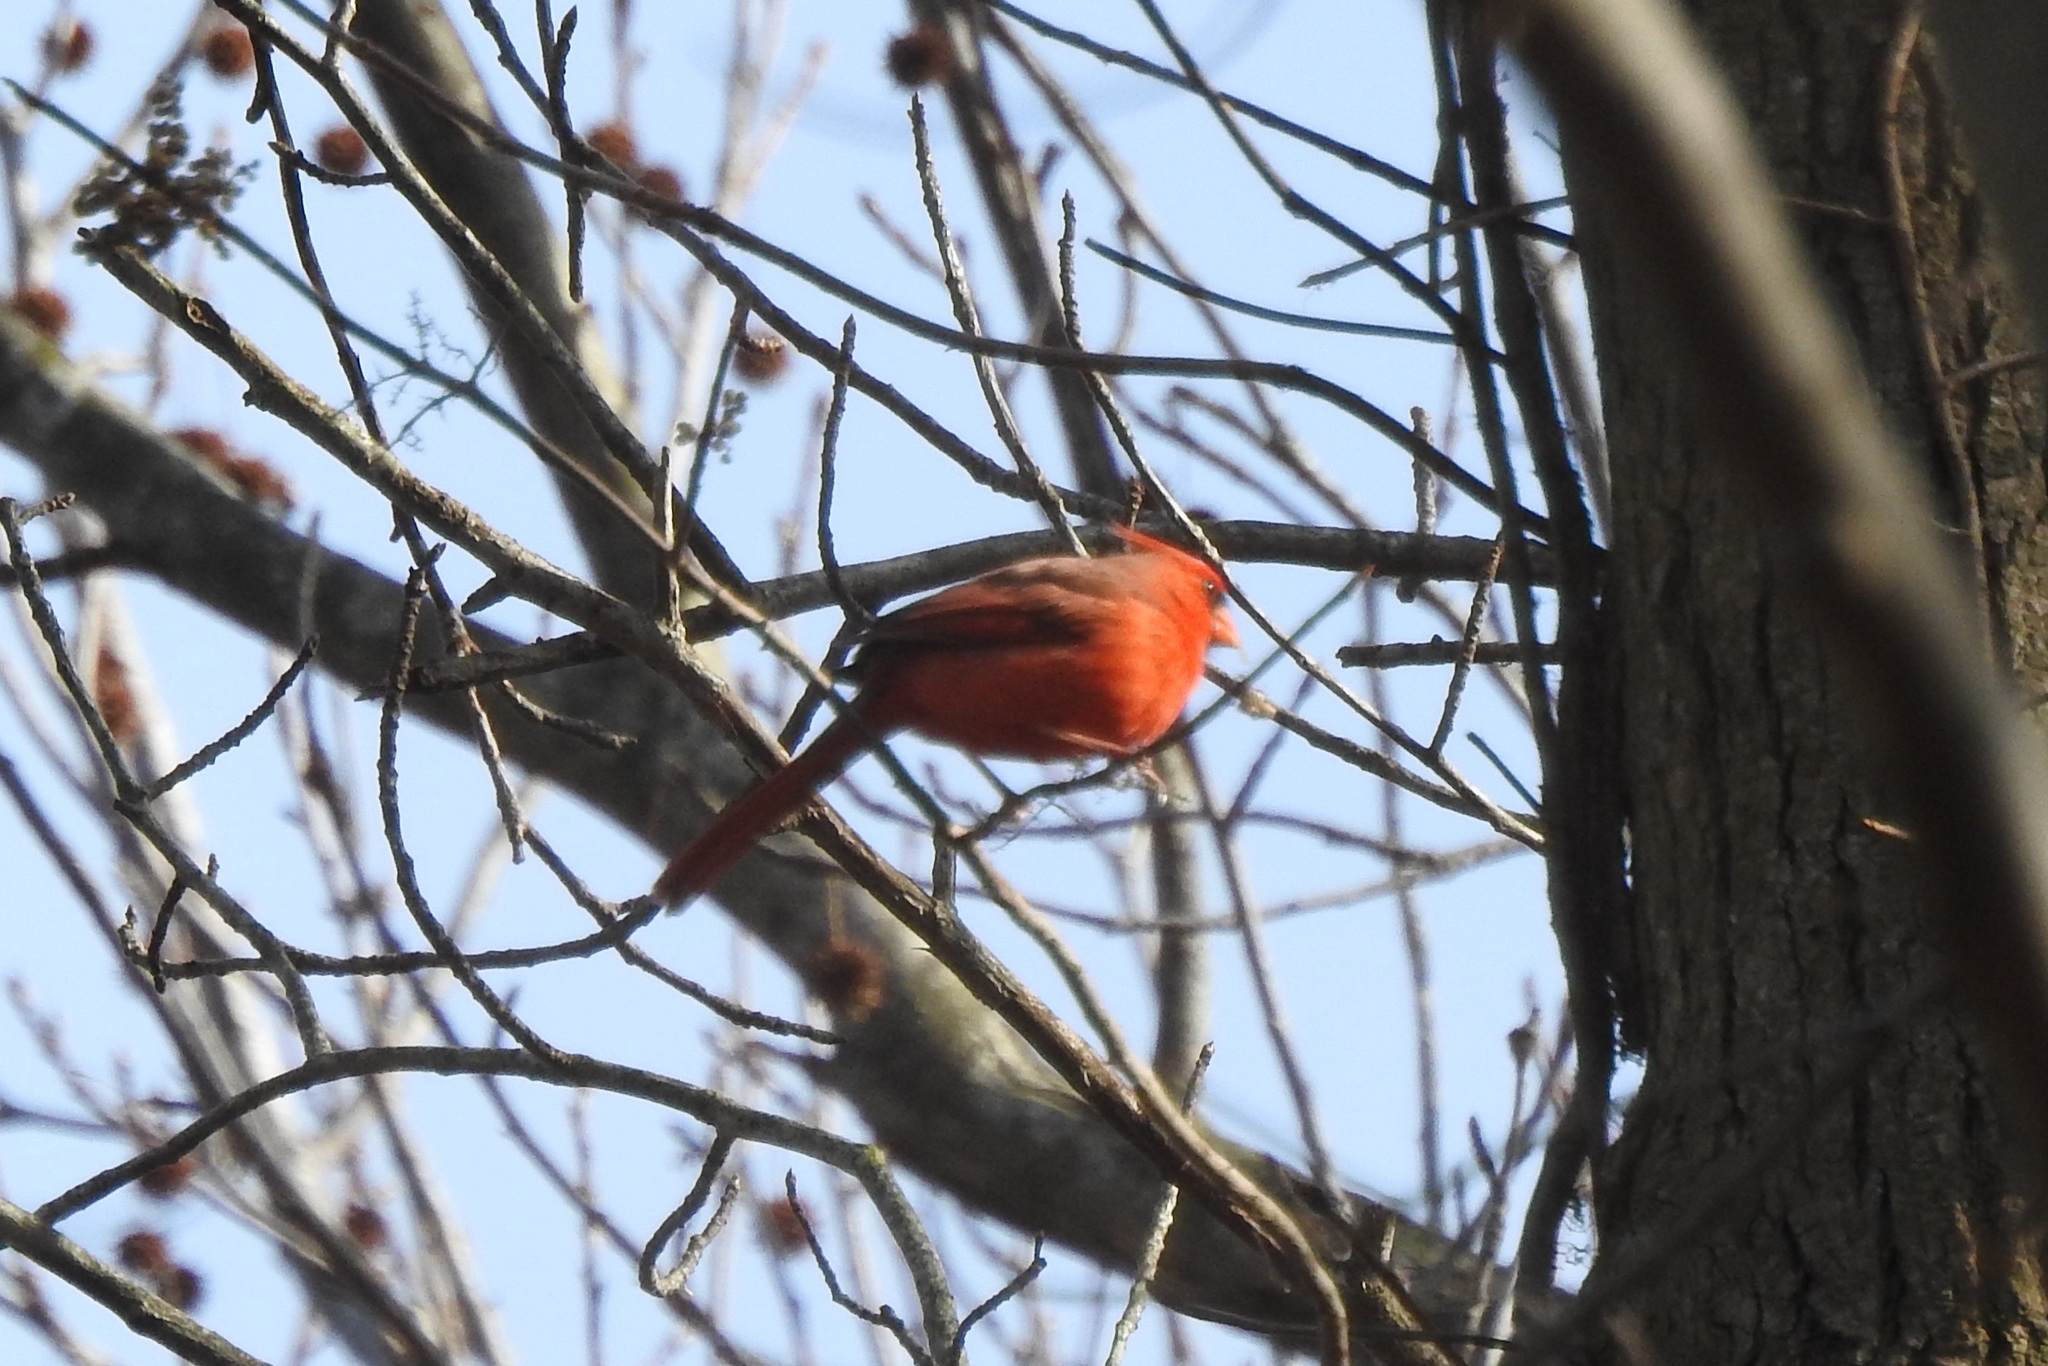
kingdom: Animalia
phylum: Chordata
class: Aves
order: Passeriformes
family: Cardinalidae
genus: Cardinalis
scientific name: Cardinalis cardinalis
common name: Northern cardinal
